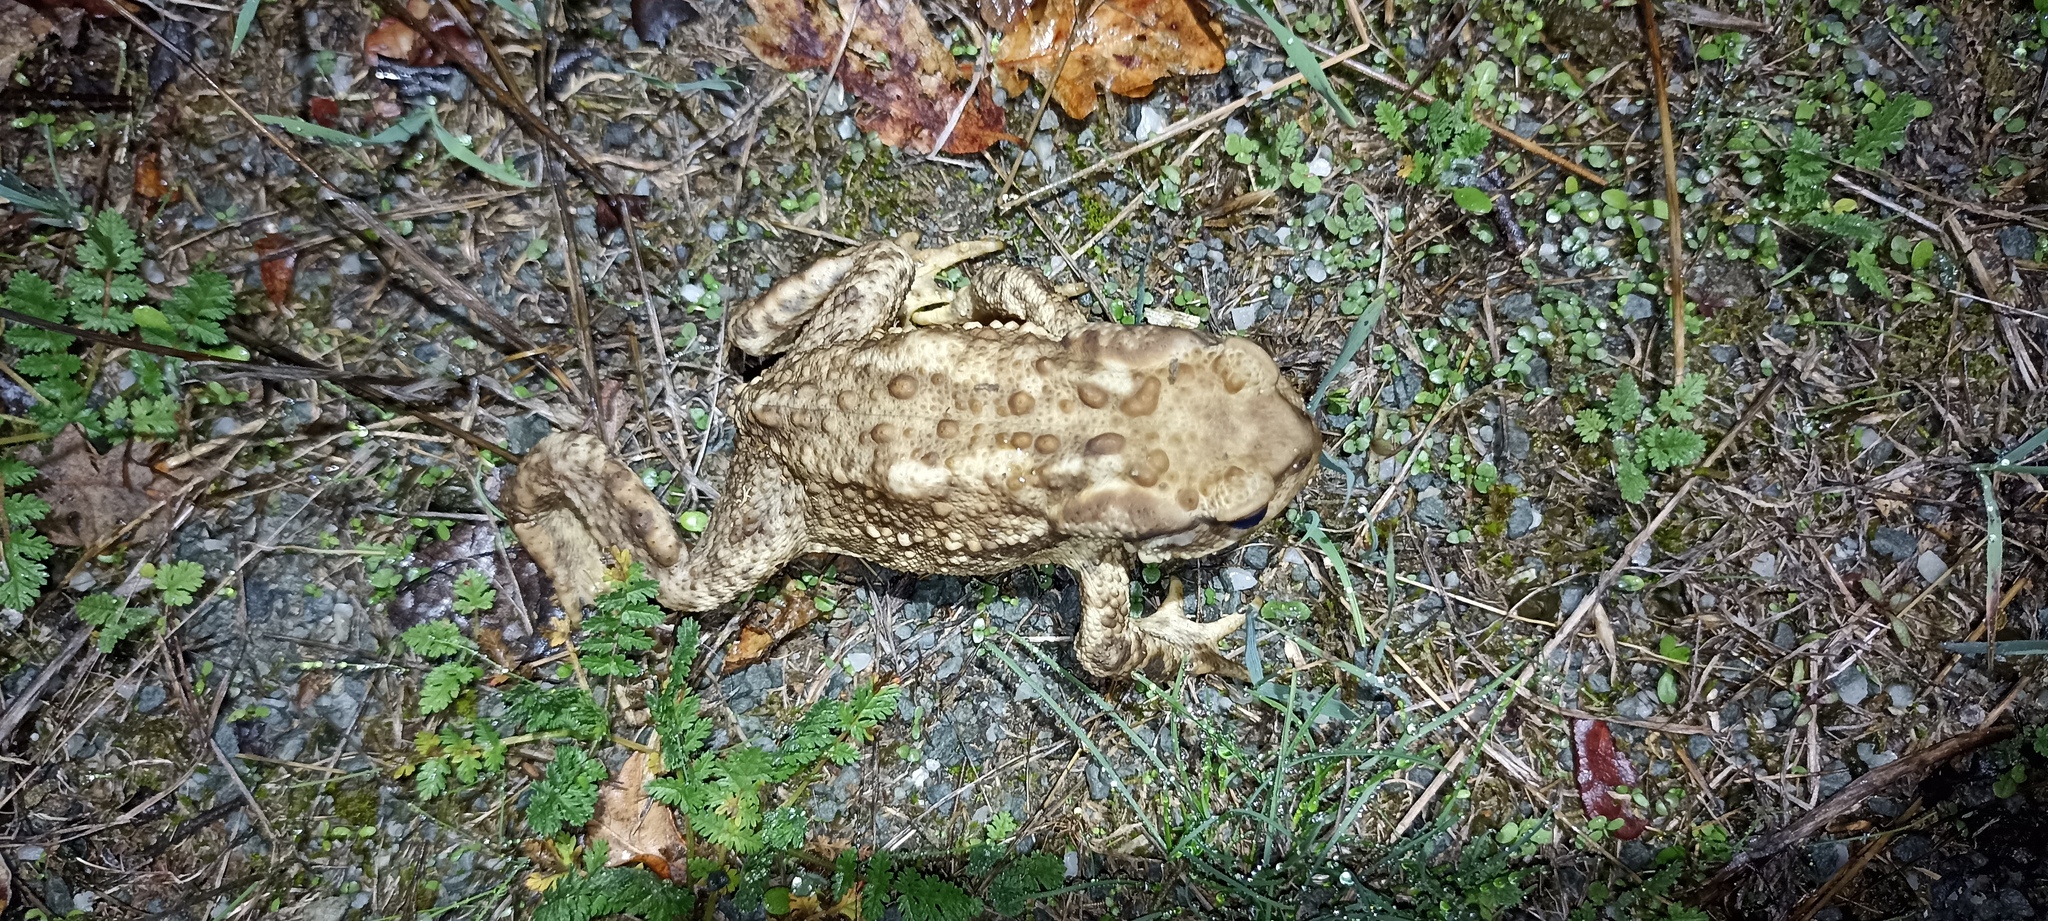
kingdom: Animalia
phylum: Chordata
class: Amphibia
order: Anura
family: Bufonidae
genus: Bufo
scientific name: Bufo spinosus
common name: Western common toad
